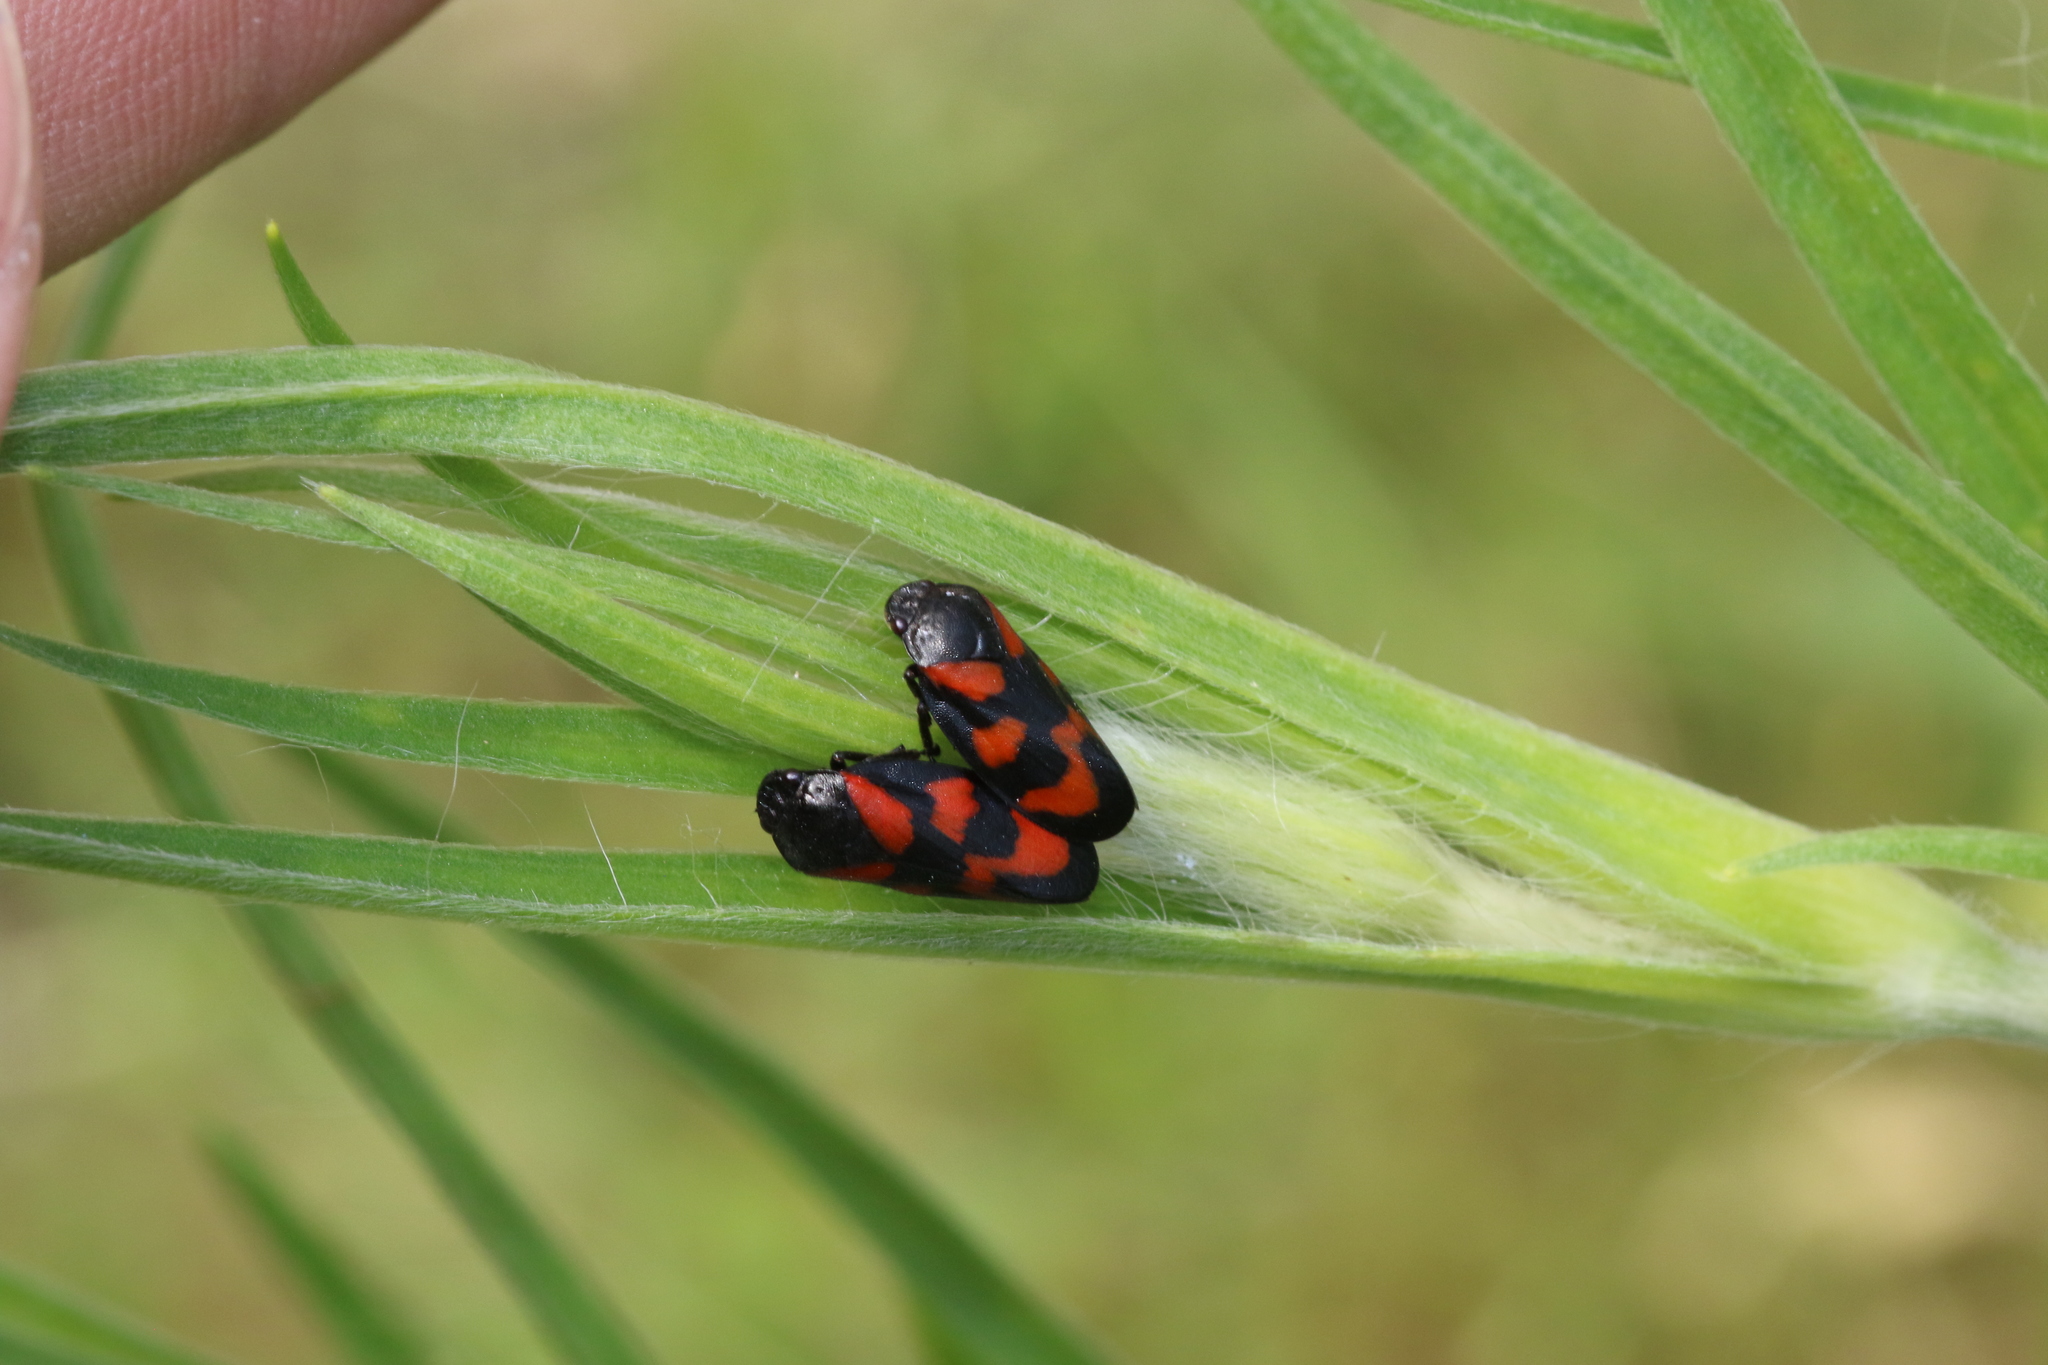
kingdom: Animalia
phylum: Arthropoda
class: Insecta
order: Hemiptera
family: Cercopidae
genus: Cercopis
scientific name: Cercopis vulnerata
